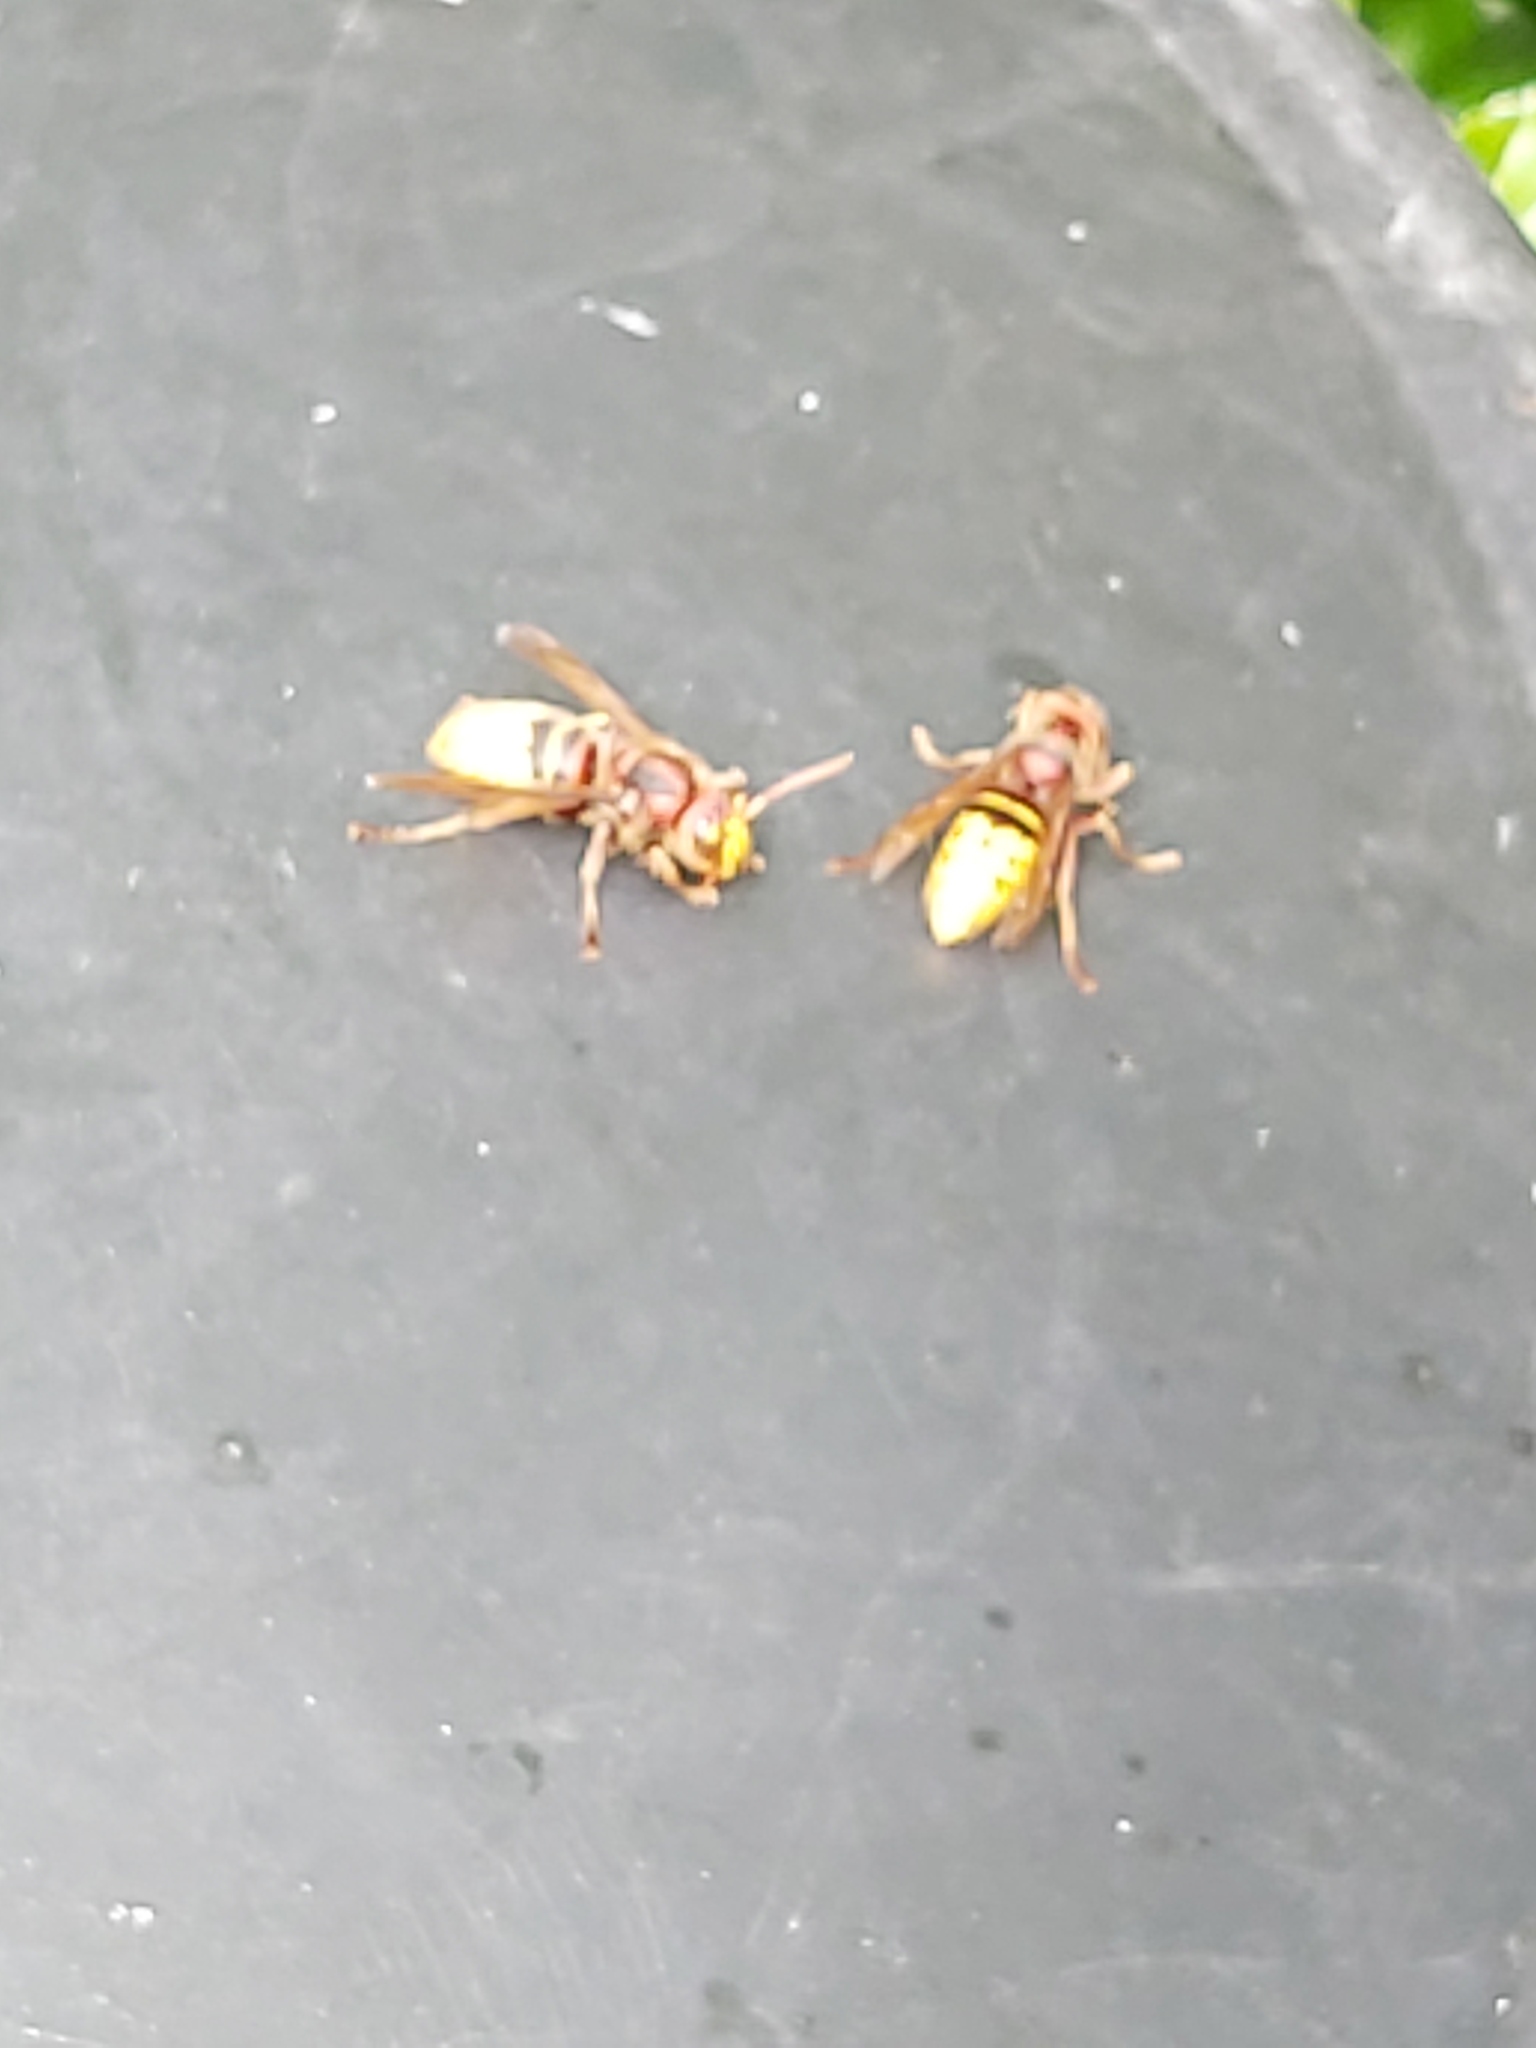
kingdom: Animalia
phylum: Arthropoda
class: Insecta
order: Hymenoptera
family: Vespidae
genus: Vespa
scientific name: Vespa crabro
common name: Hornet
